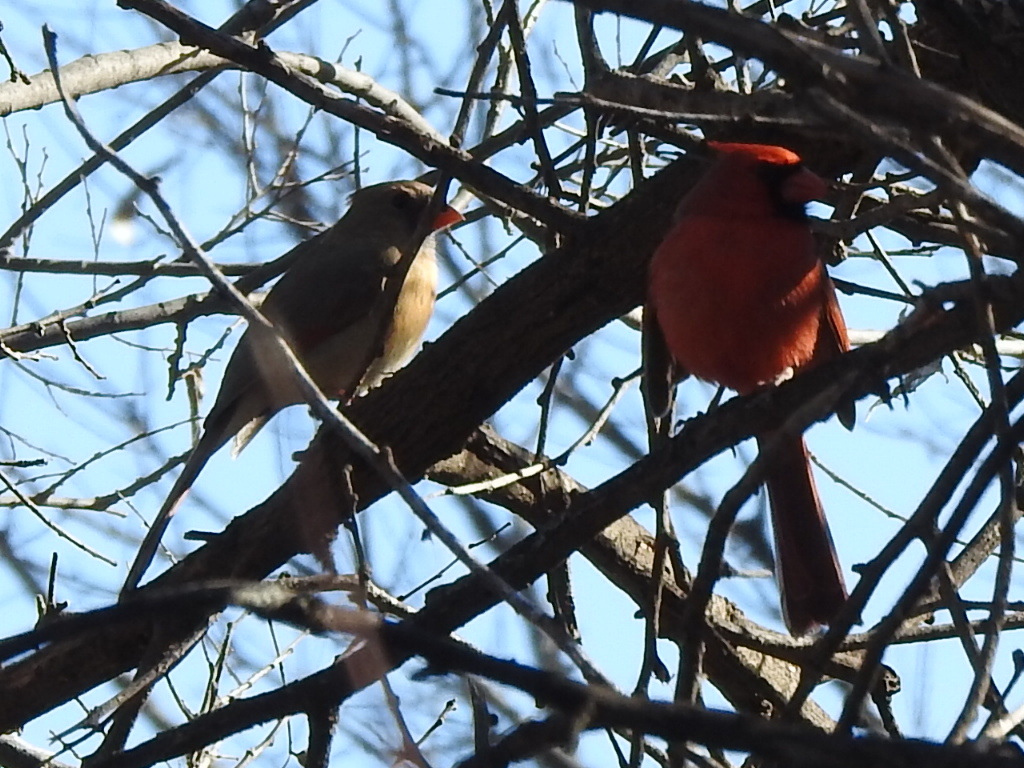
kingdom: Animalia
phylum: Chordata
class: Aves
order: Passeriformes
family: Cardinalidae
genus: Cardinalis
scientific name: Cardinalis cardinalis
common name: Northern cardinal
